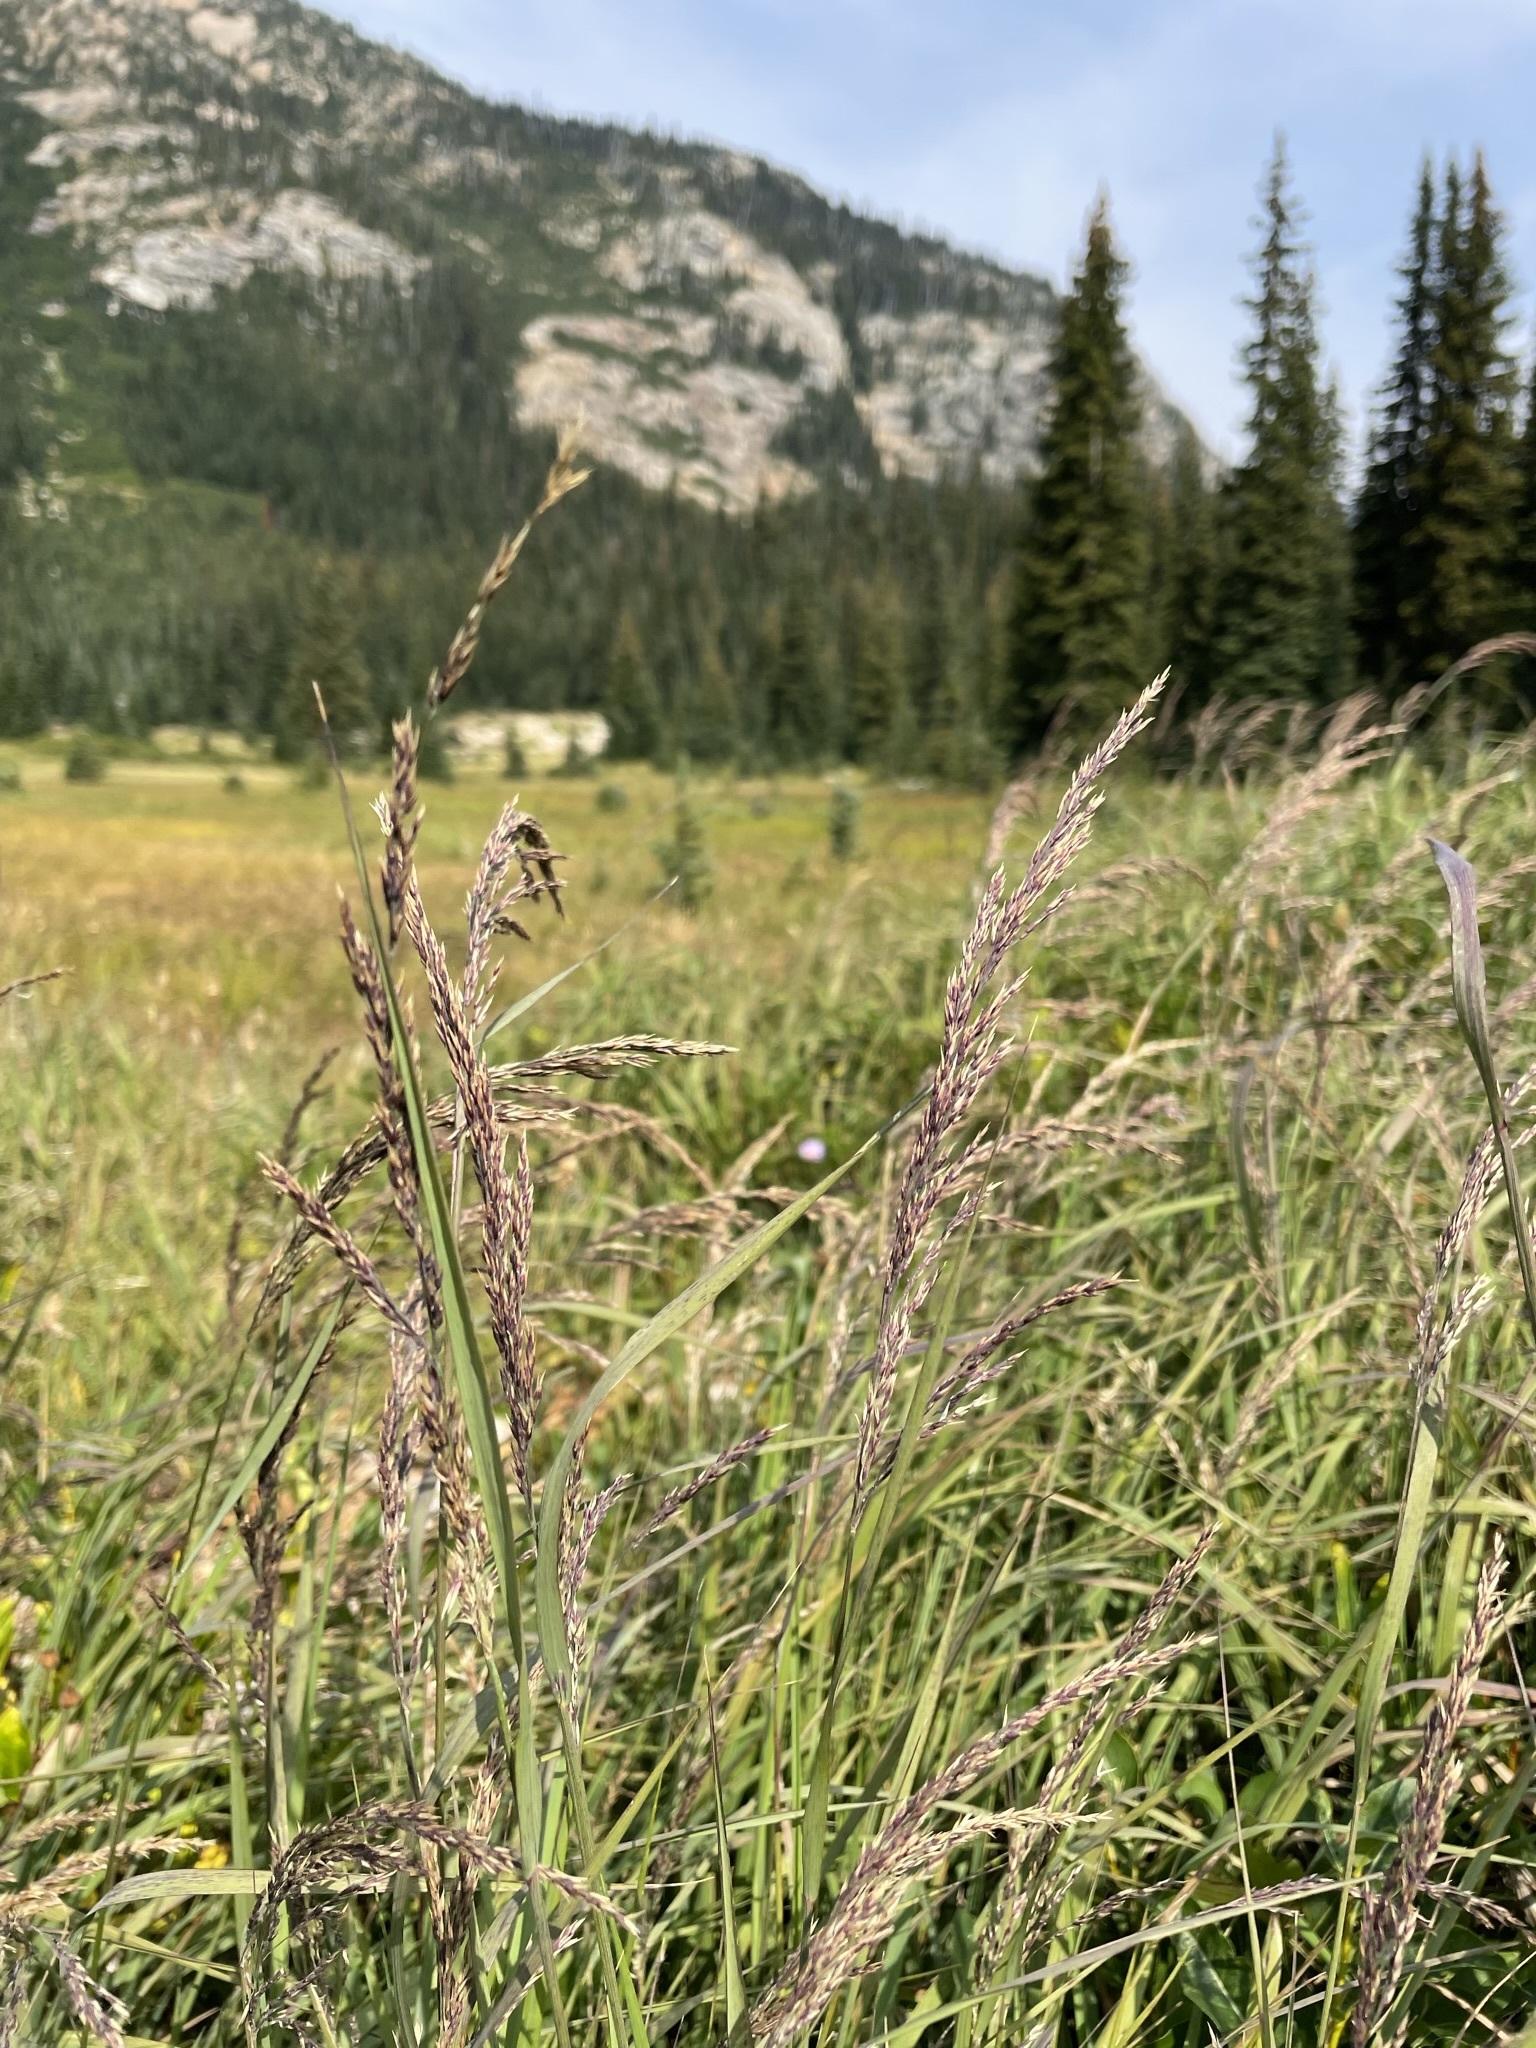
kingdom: Plantae
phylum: Tracheophyta
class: Liliopsida
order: Poales
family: Poaceae
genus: Calamagrostis
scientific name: Calamagrostis canadensis
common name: Canada bluejoint
